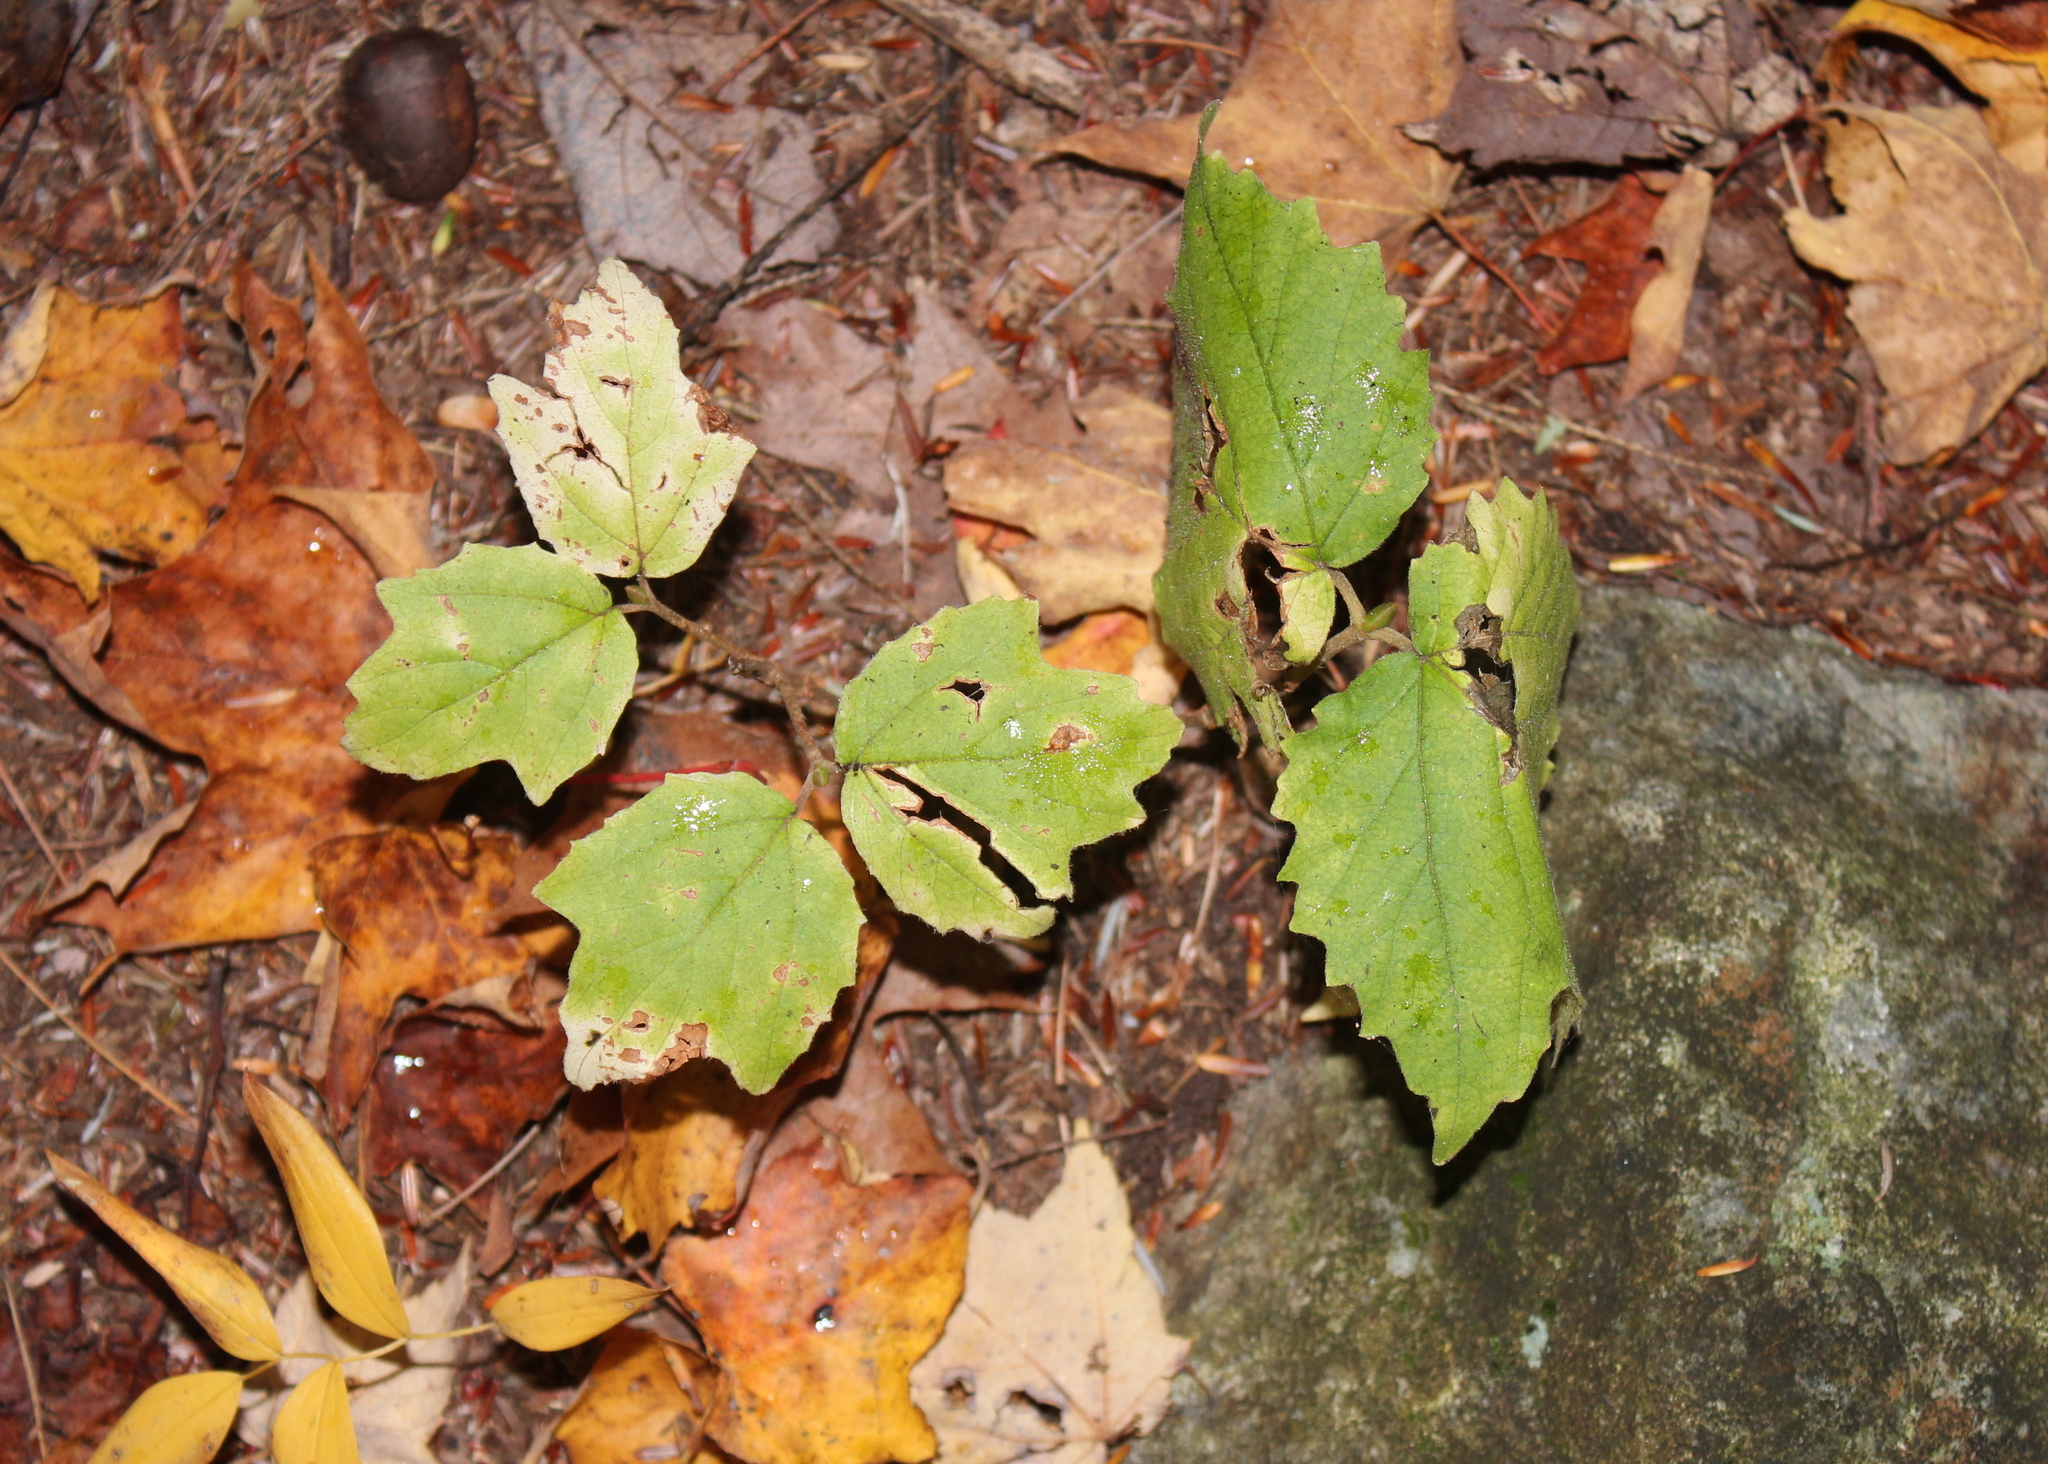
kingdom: Plantae
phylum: Tracheophyta
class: Magnoliopsida
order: Dipsacales
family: Viburnaceae
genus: Viburnum
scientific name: Viburnum acerifolium
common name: Dockmackie
